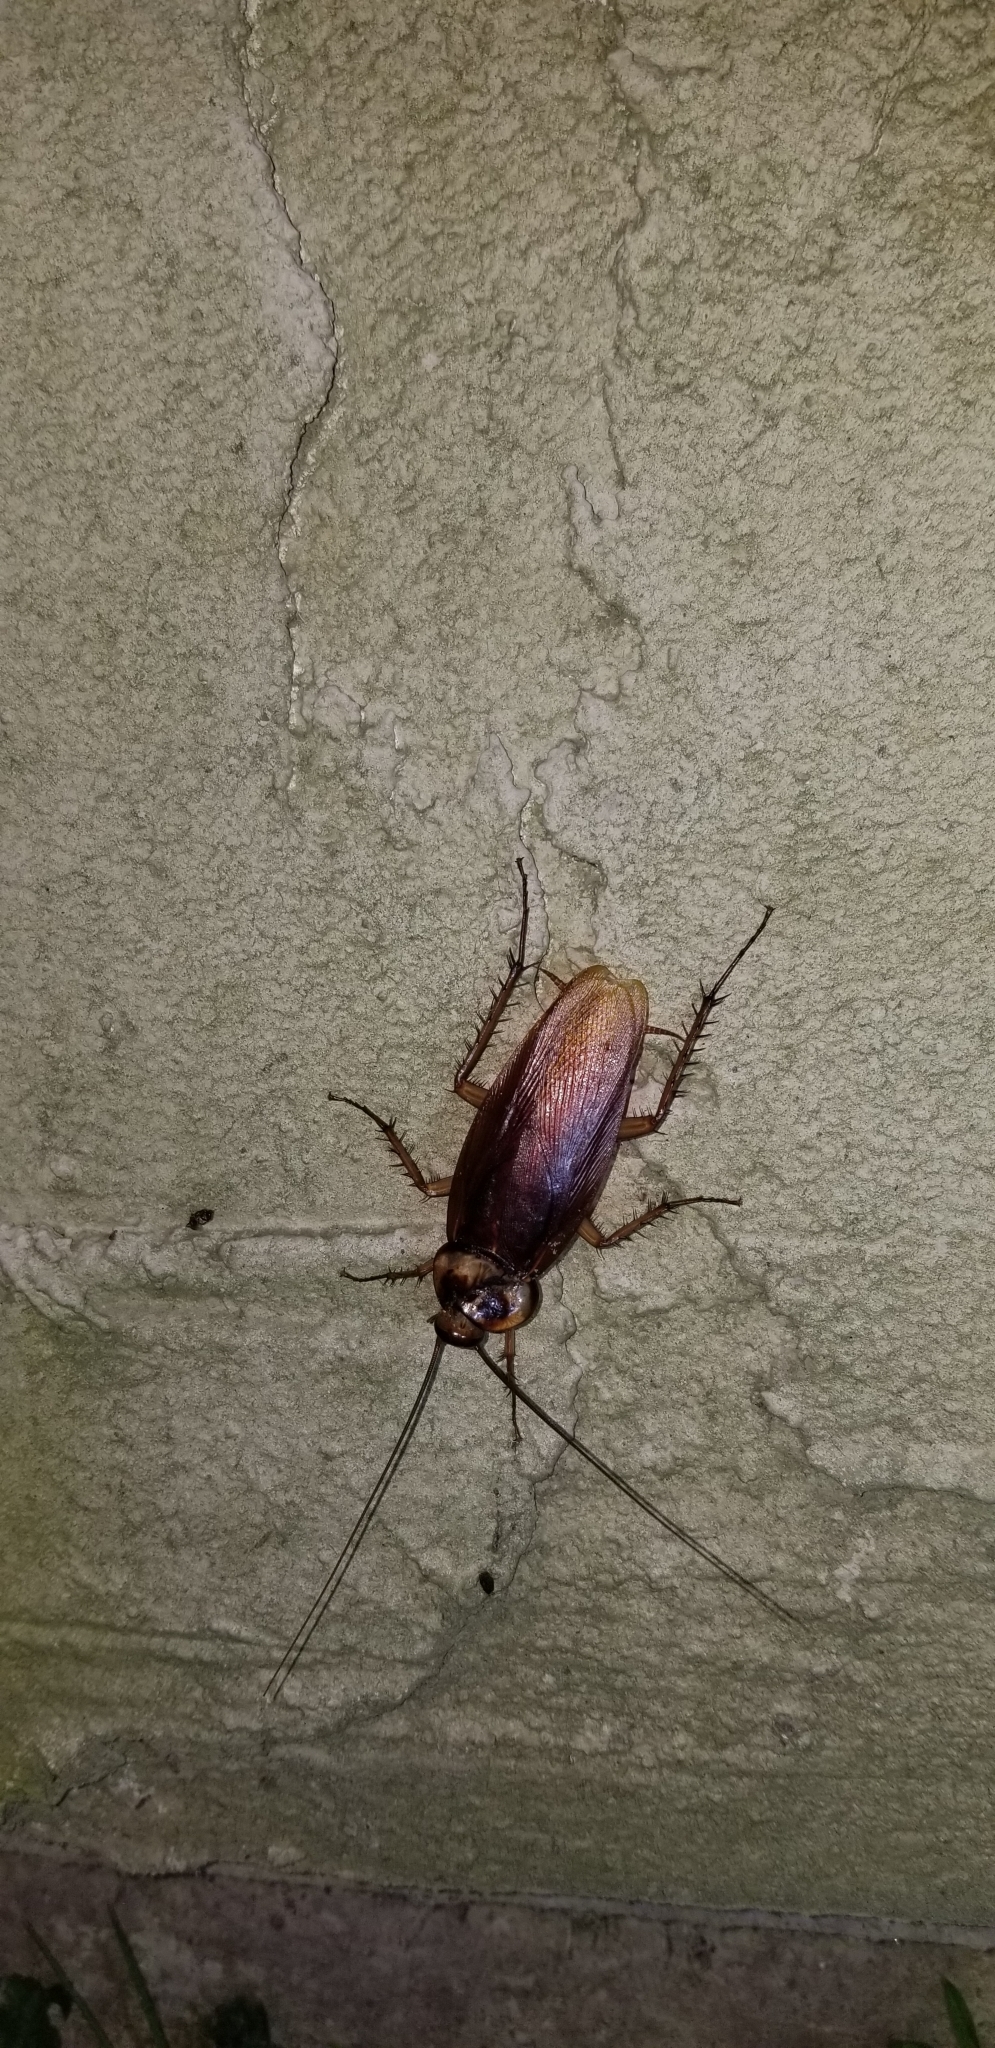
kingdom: Animalia
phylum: Arthropoda
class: Insecta
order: Blattodea
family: Blattidae
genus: Periplaneta
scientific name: Periplaneta americana
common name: American cockroach
